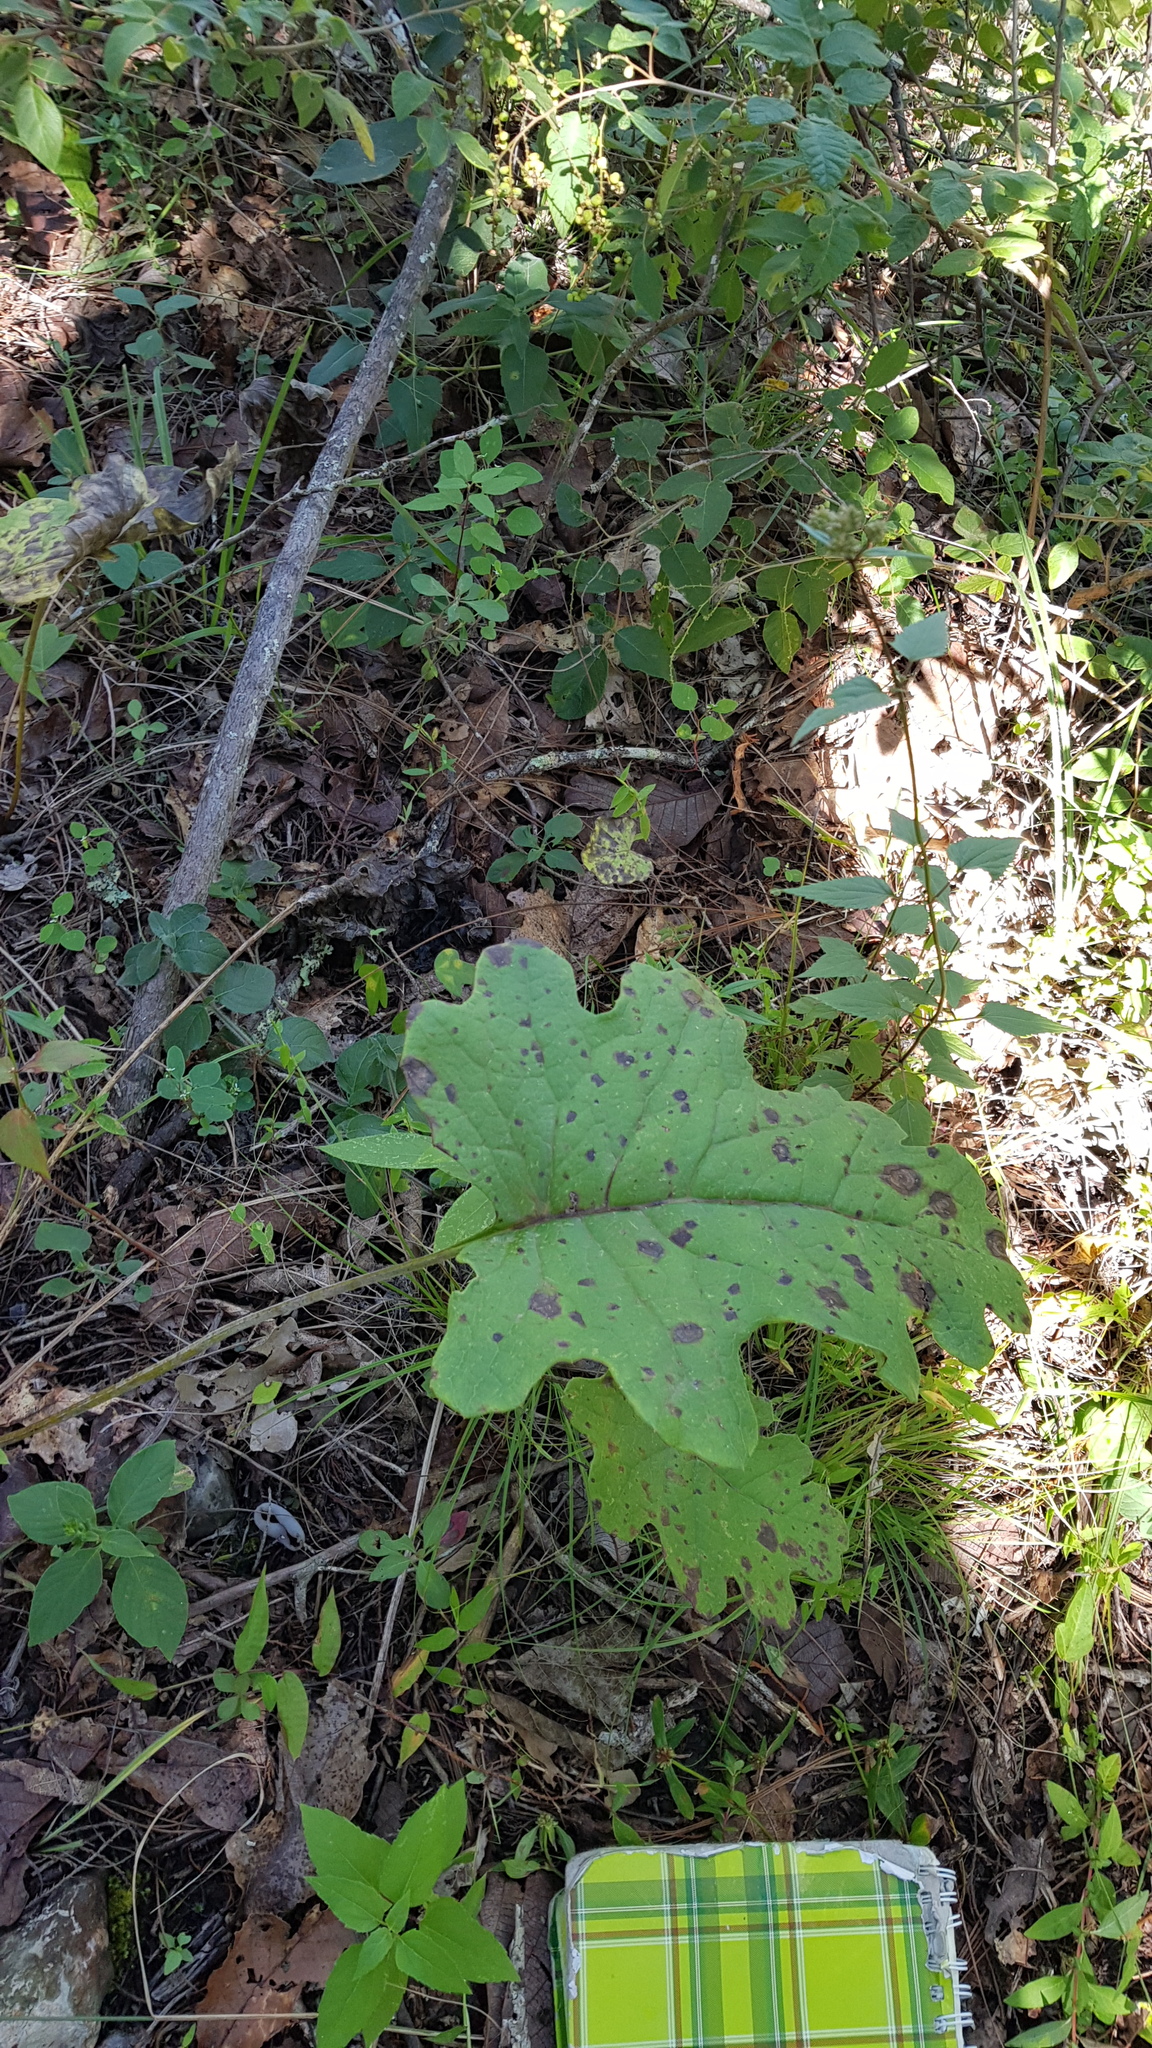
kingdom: Plantae
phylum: Tracheophyta
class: Magnoliopsida
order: Asterales
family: Asteraceae
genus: Psacalium
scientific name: Psacalium amplifolium
